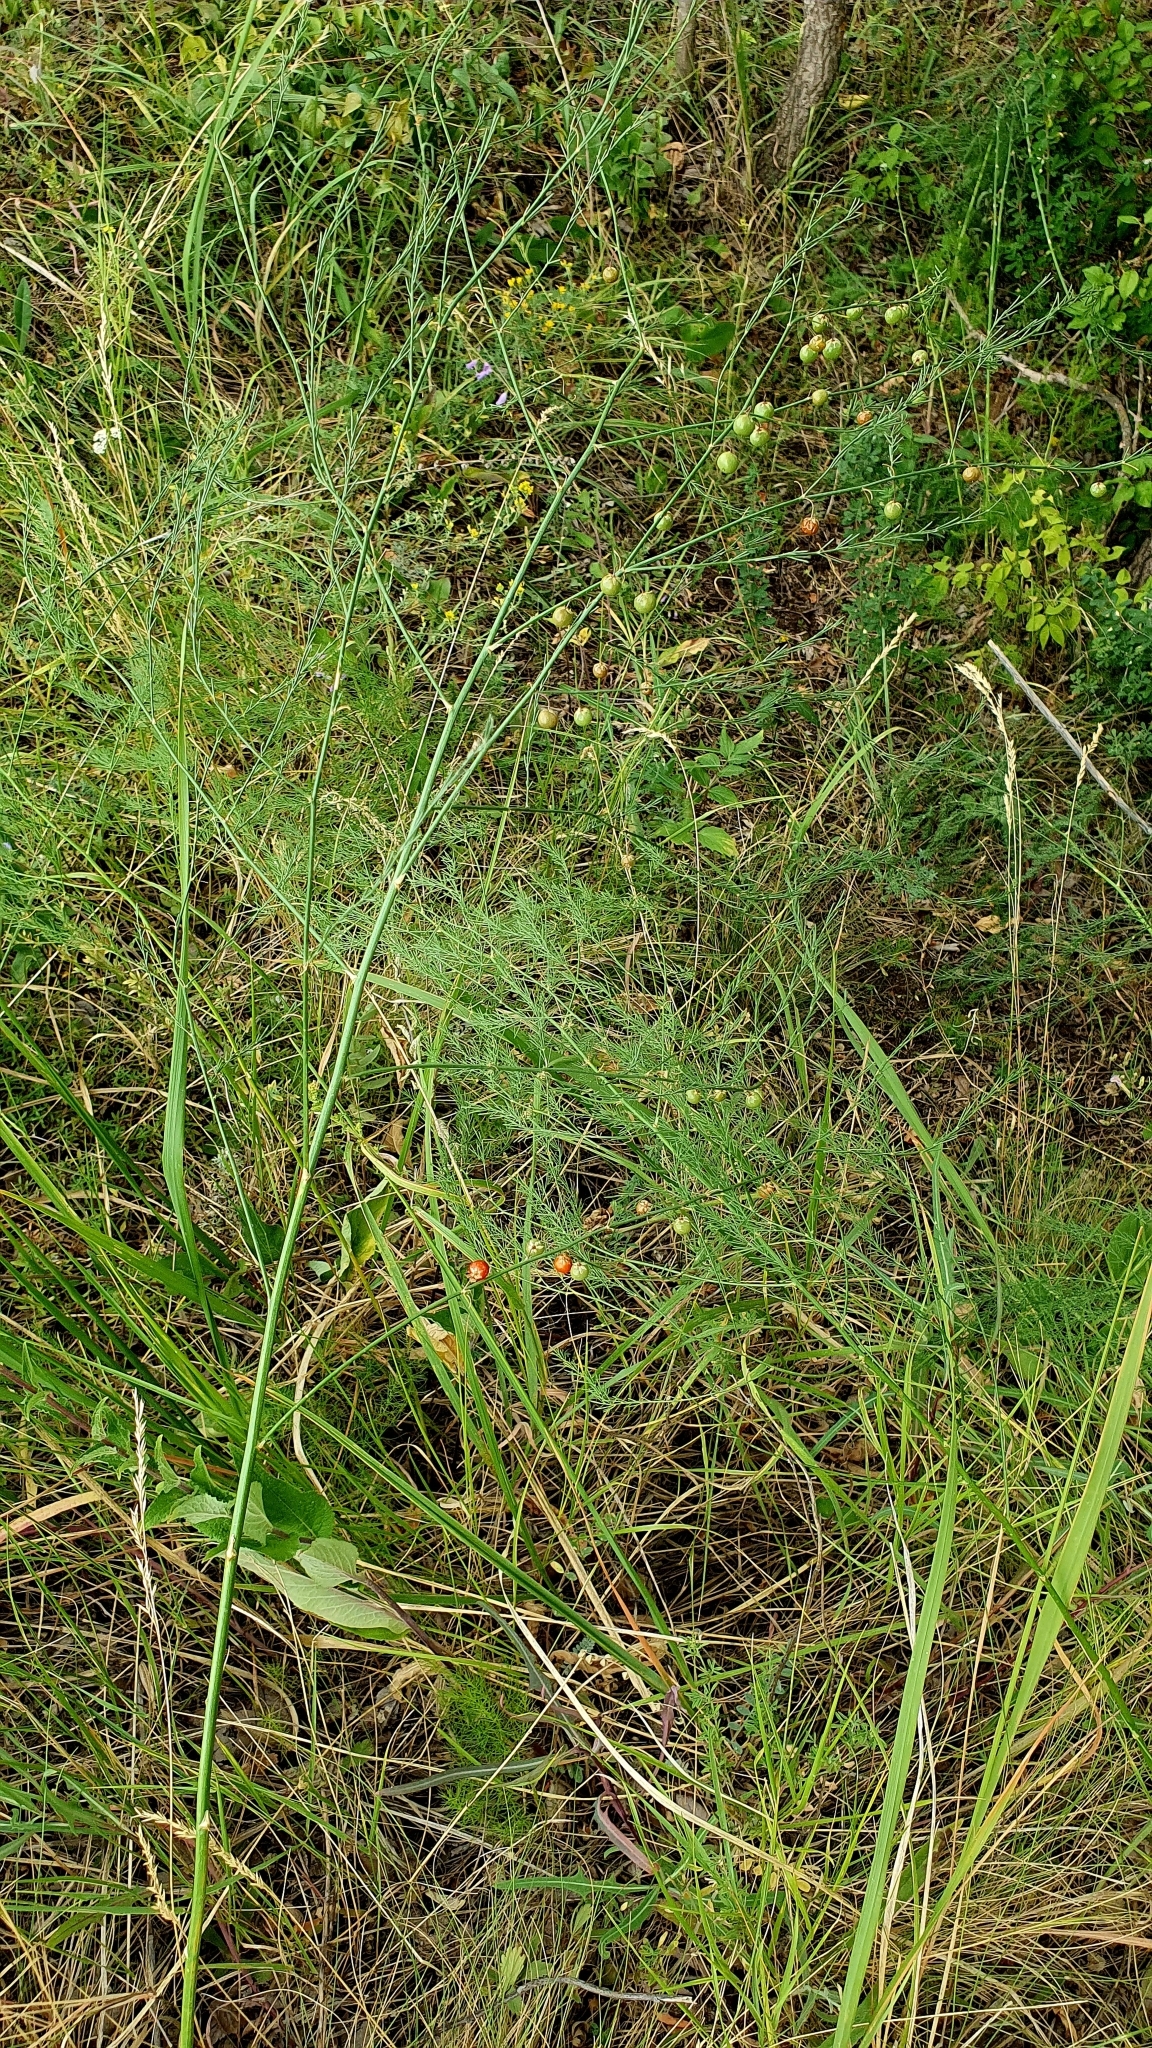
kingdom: Plantae
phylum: Tracheophyta
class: Liliopsida
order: Asparagales
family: Asparagaceae
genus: Asparagus
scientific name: Asparagus officinalis
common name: Garden asparagus
